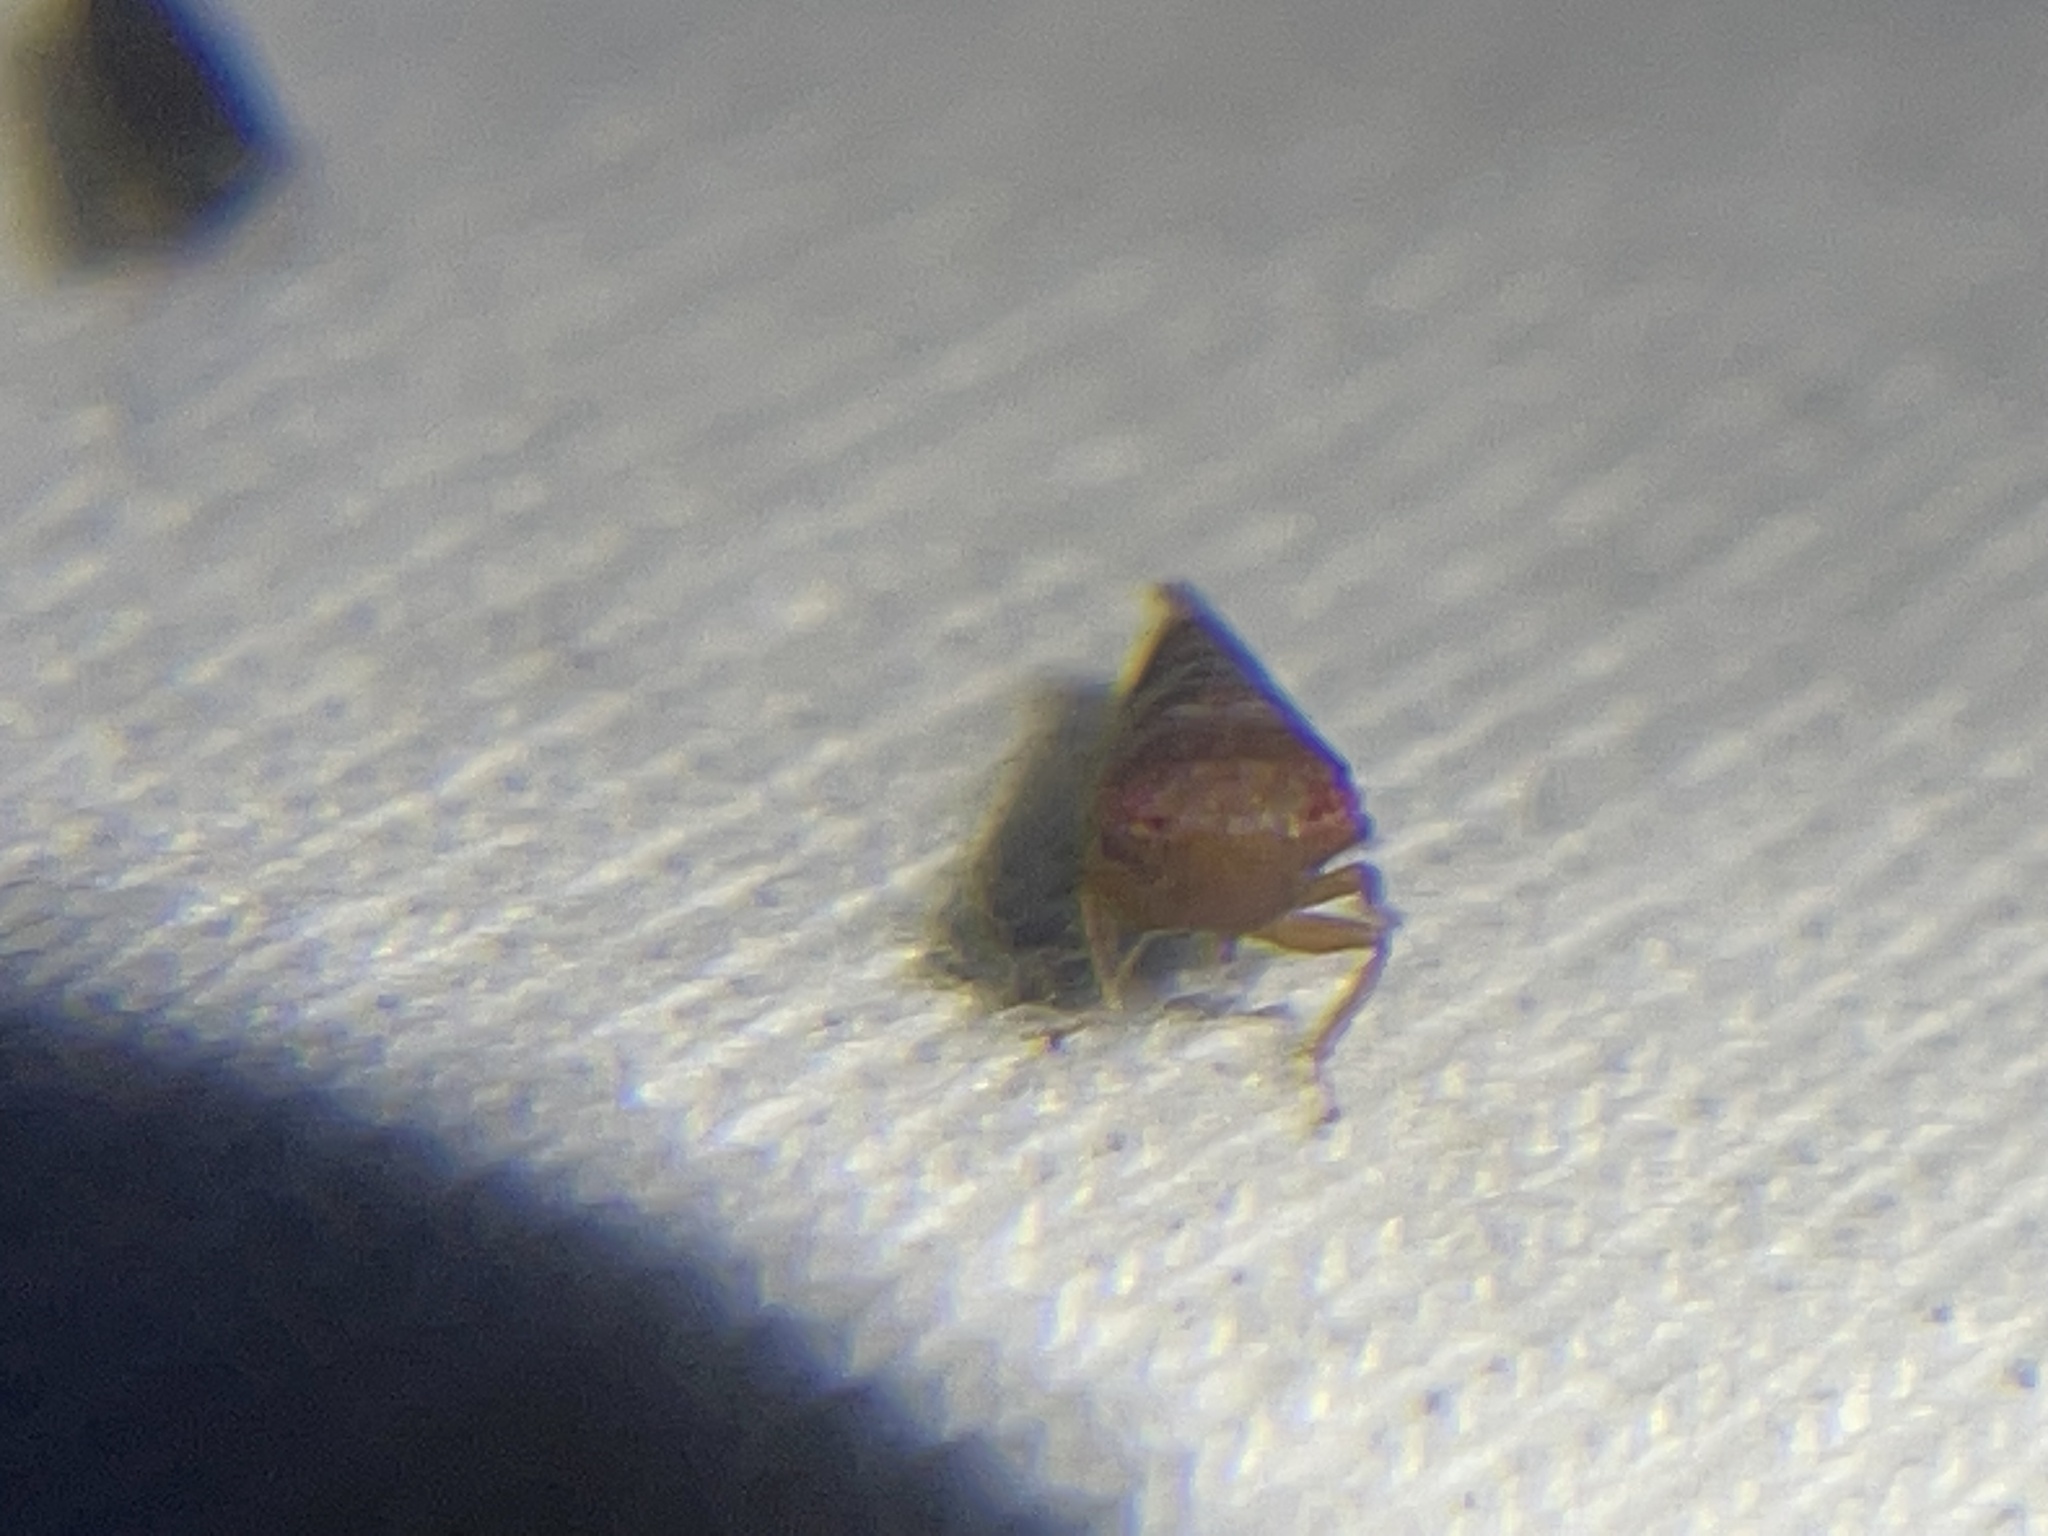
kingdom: Animalia
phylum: Arthropoda
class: Insecta
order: Hemiptera
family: Cicadellidae
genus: Norvellina
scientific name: Norvellina helenae
